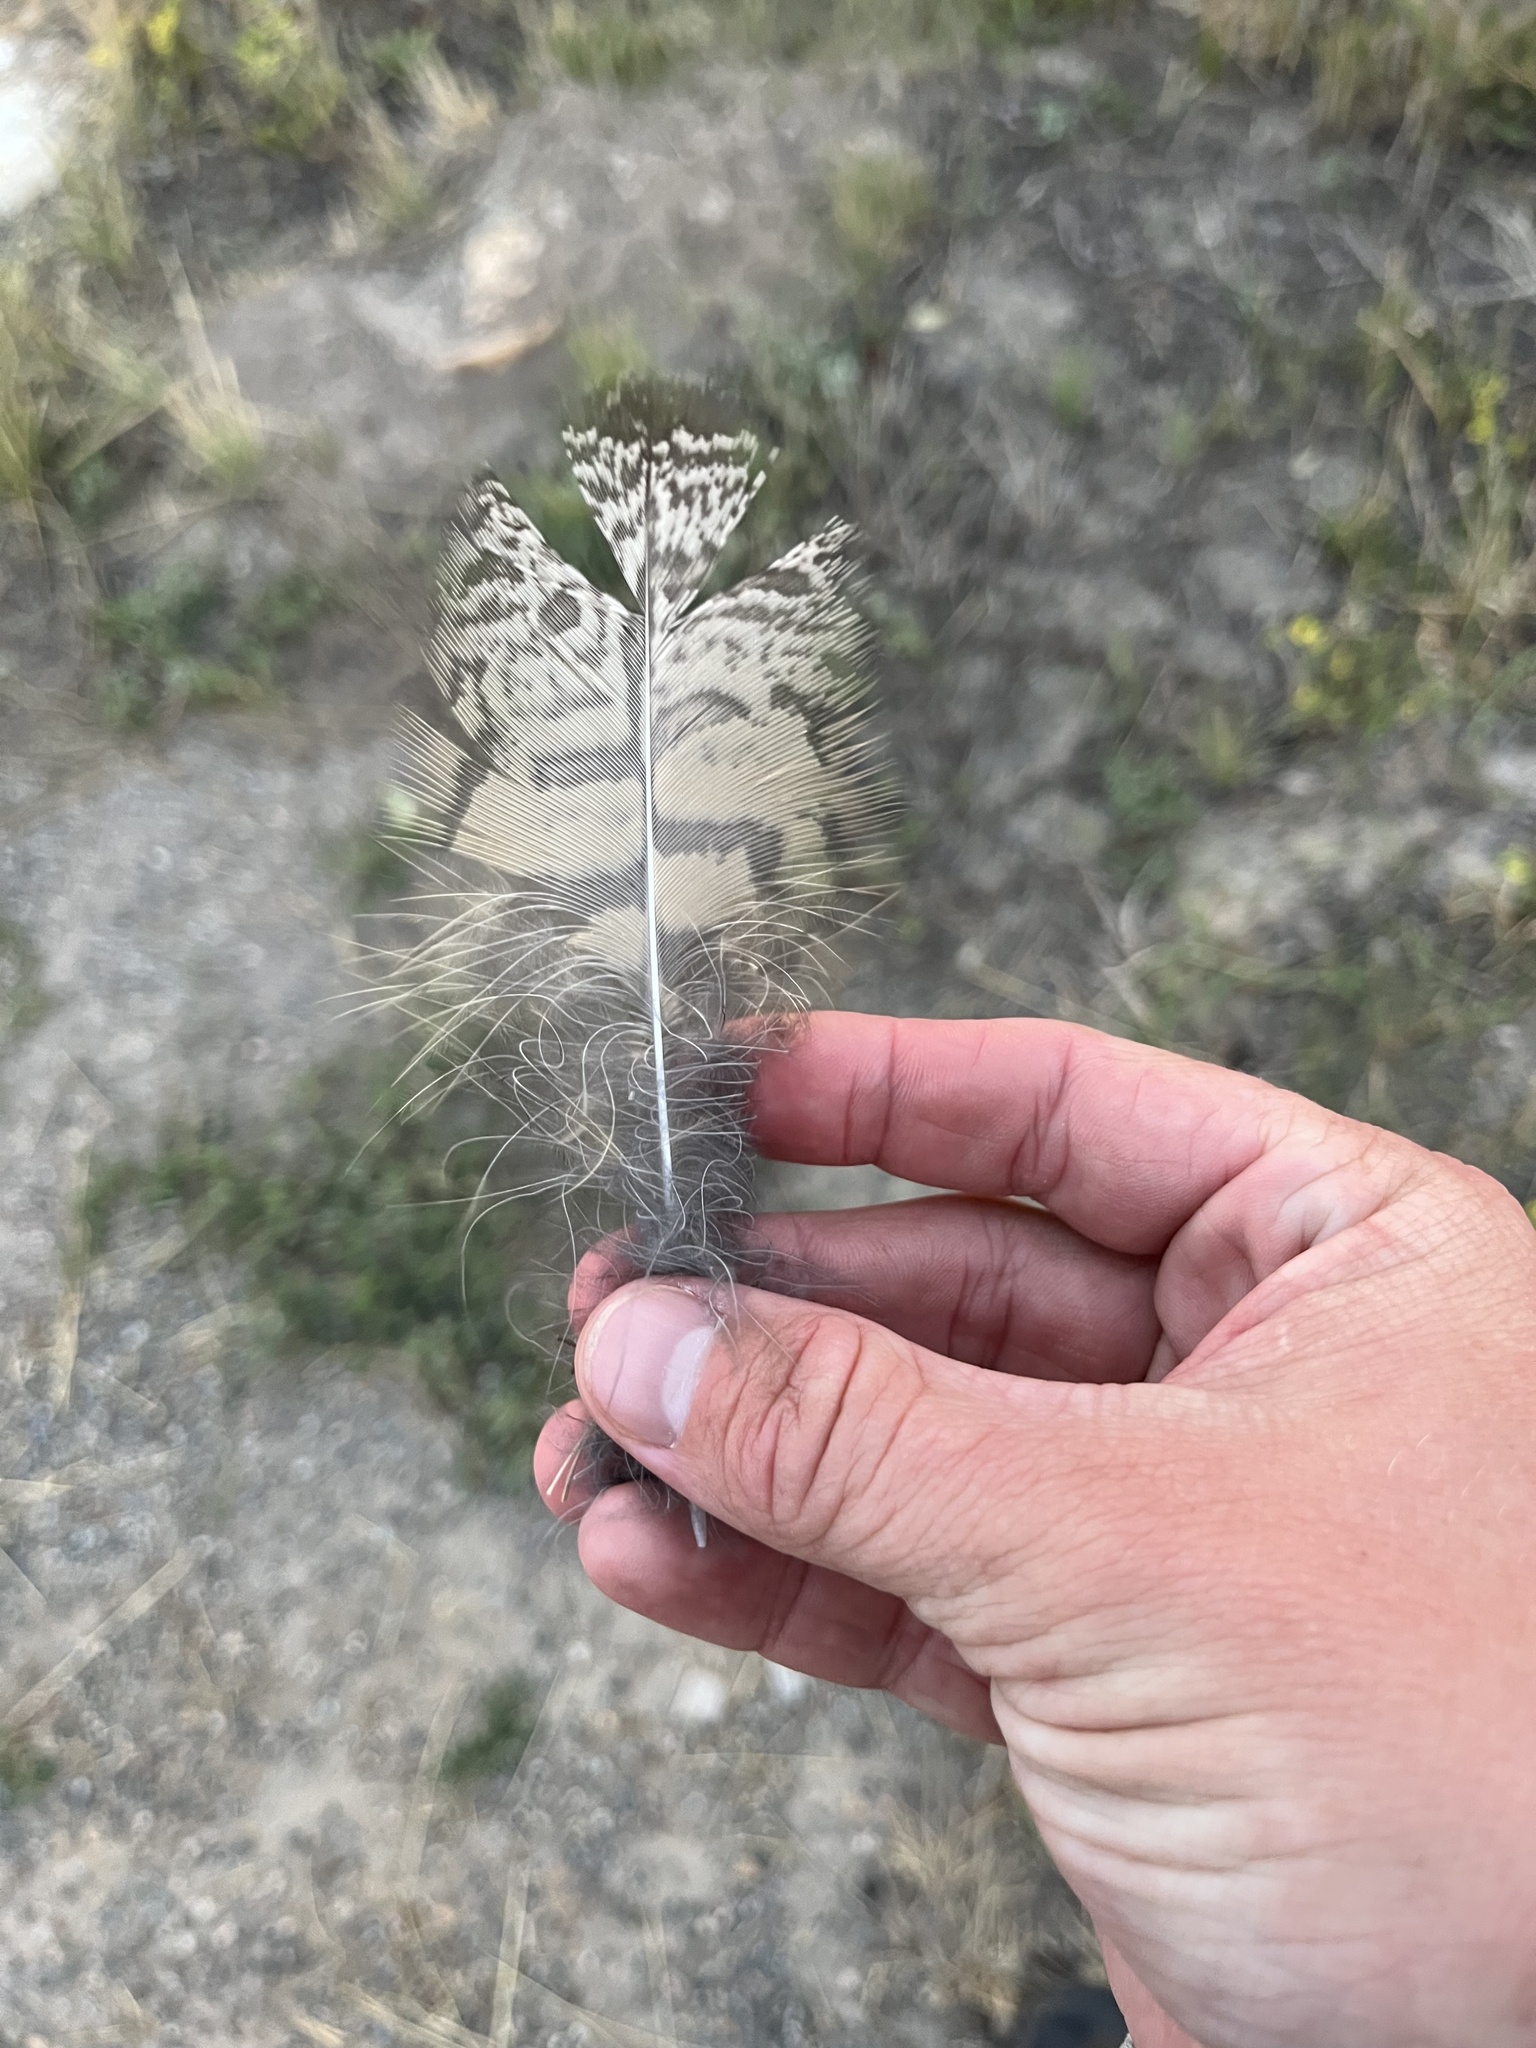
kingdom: Animalia
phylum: Chordata
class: Aves
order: Strigiformes
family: Strigidae
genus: Bubo
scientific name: Bubo virginianus
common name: Great horned owl
